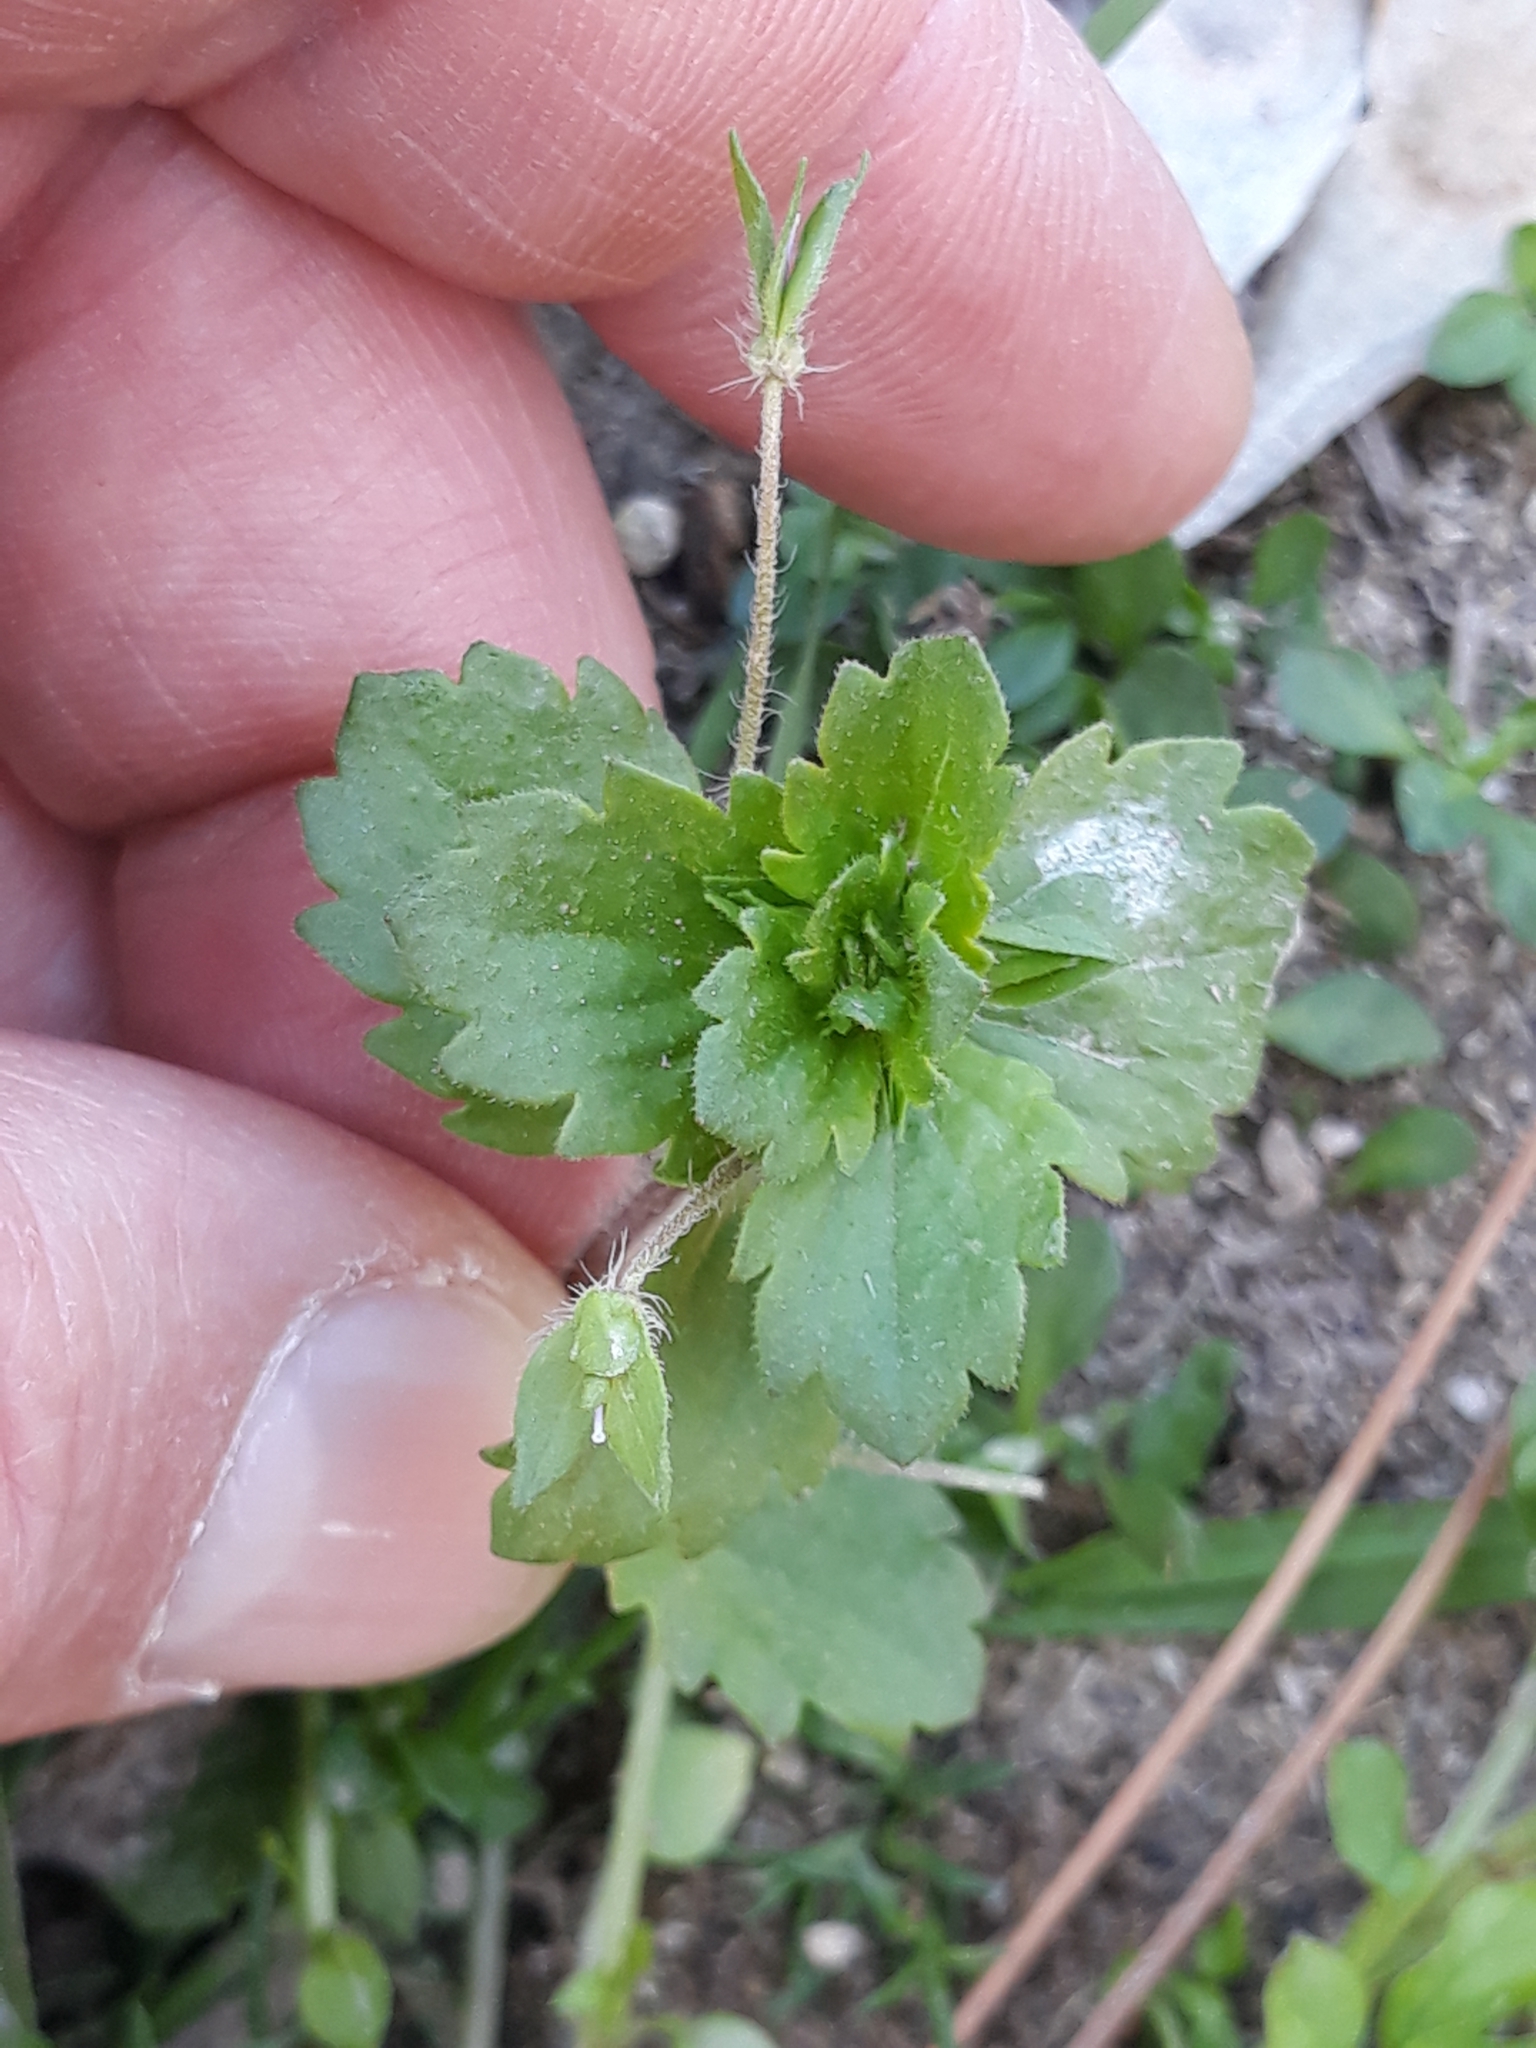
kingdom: Plantae
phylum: Tracheophyta
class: Magnoliopsida
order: Lamiales
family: Plantaginaceae
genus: Veronica
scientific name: Veronica persica
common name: Common field-speedwell
